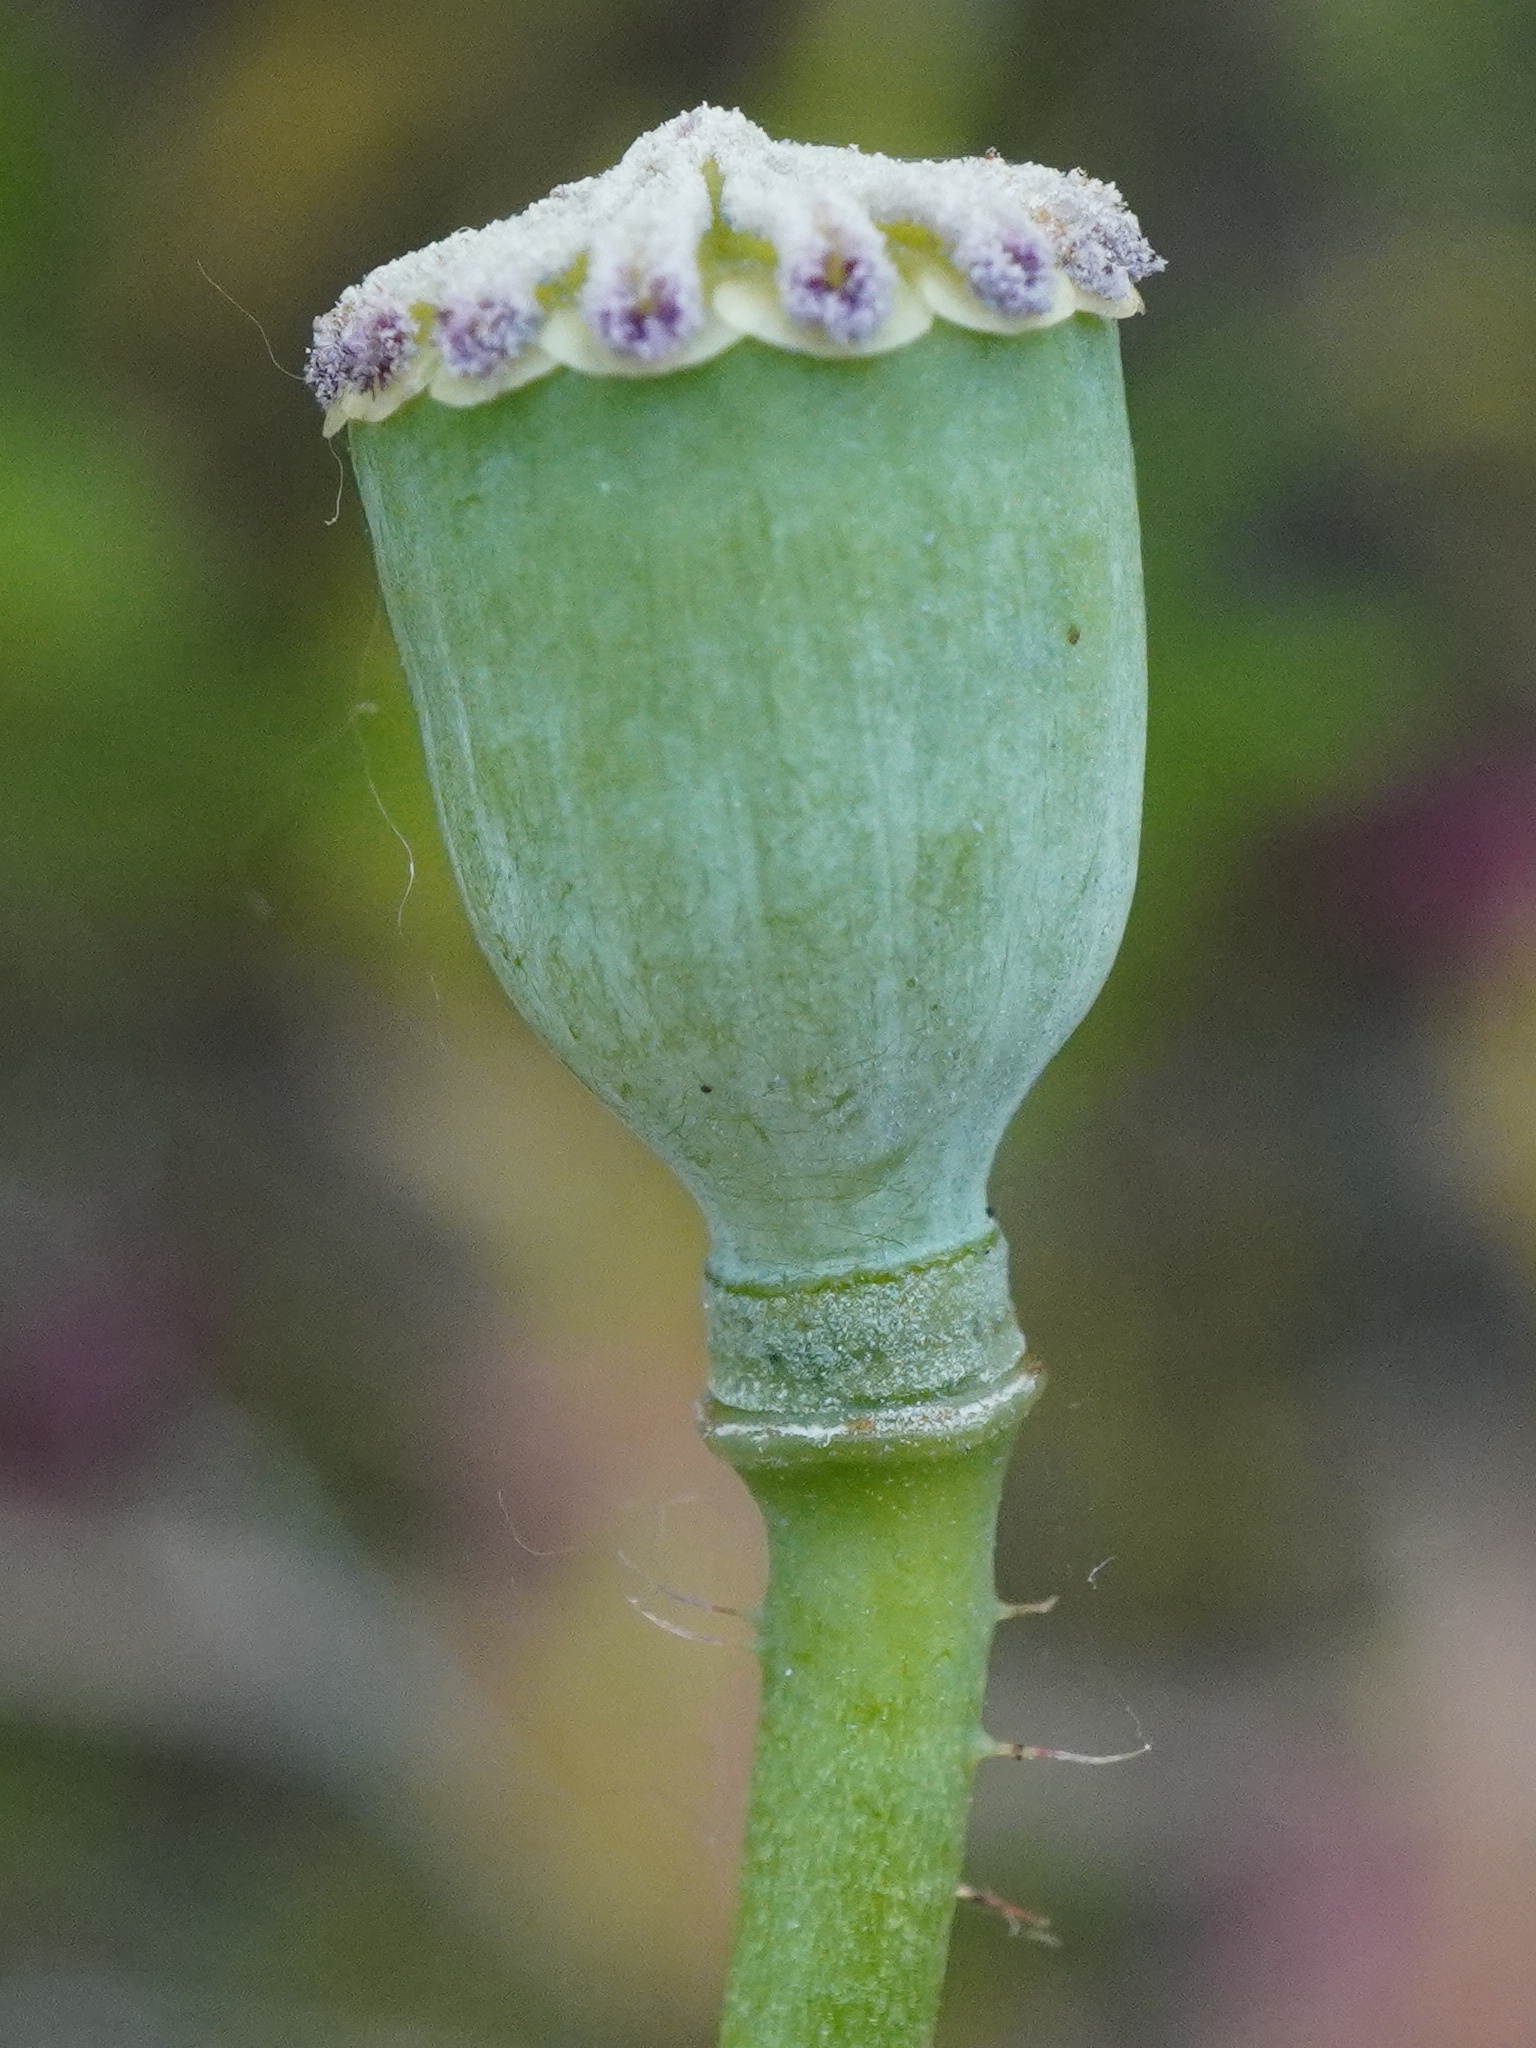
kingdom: Plantae
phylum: Tracheophyta
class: Magnoliopsida
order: Ranunculales
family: Papaveraceae
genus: Papaver
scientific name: Papaver rhoeas
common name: Corn poppy
